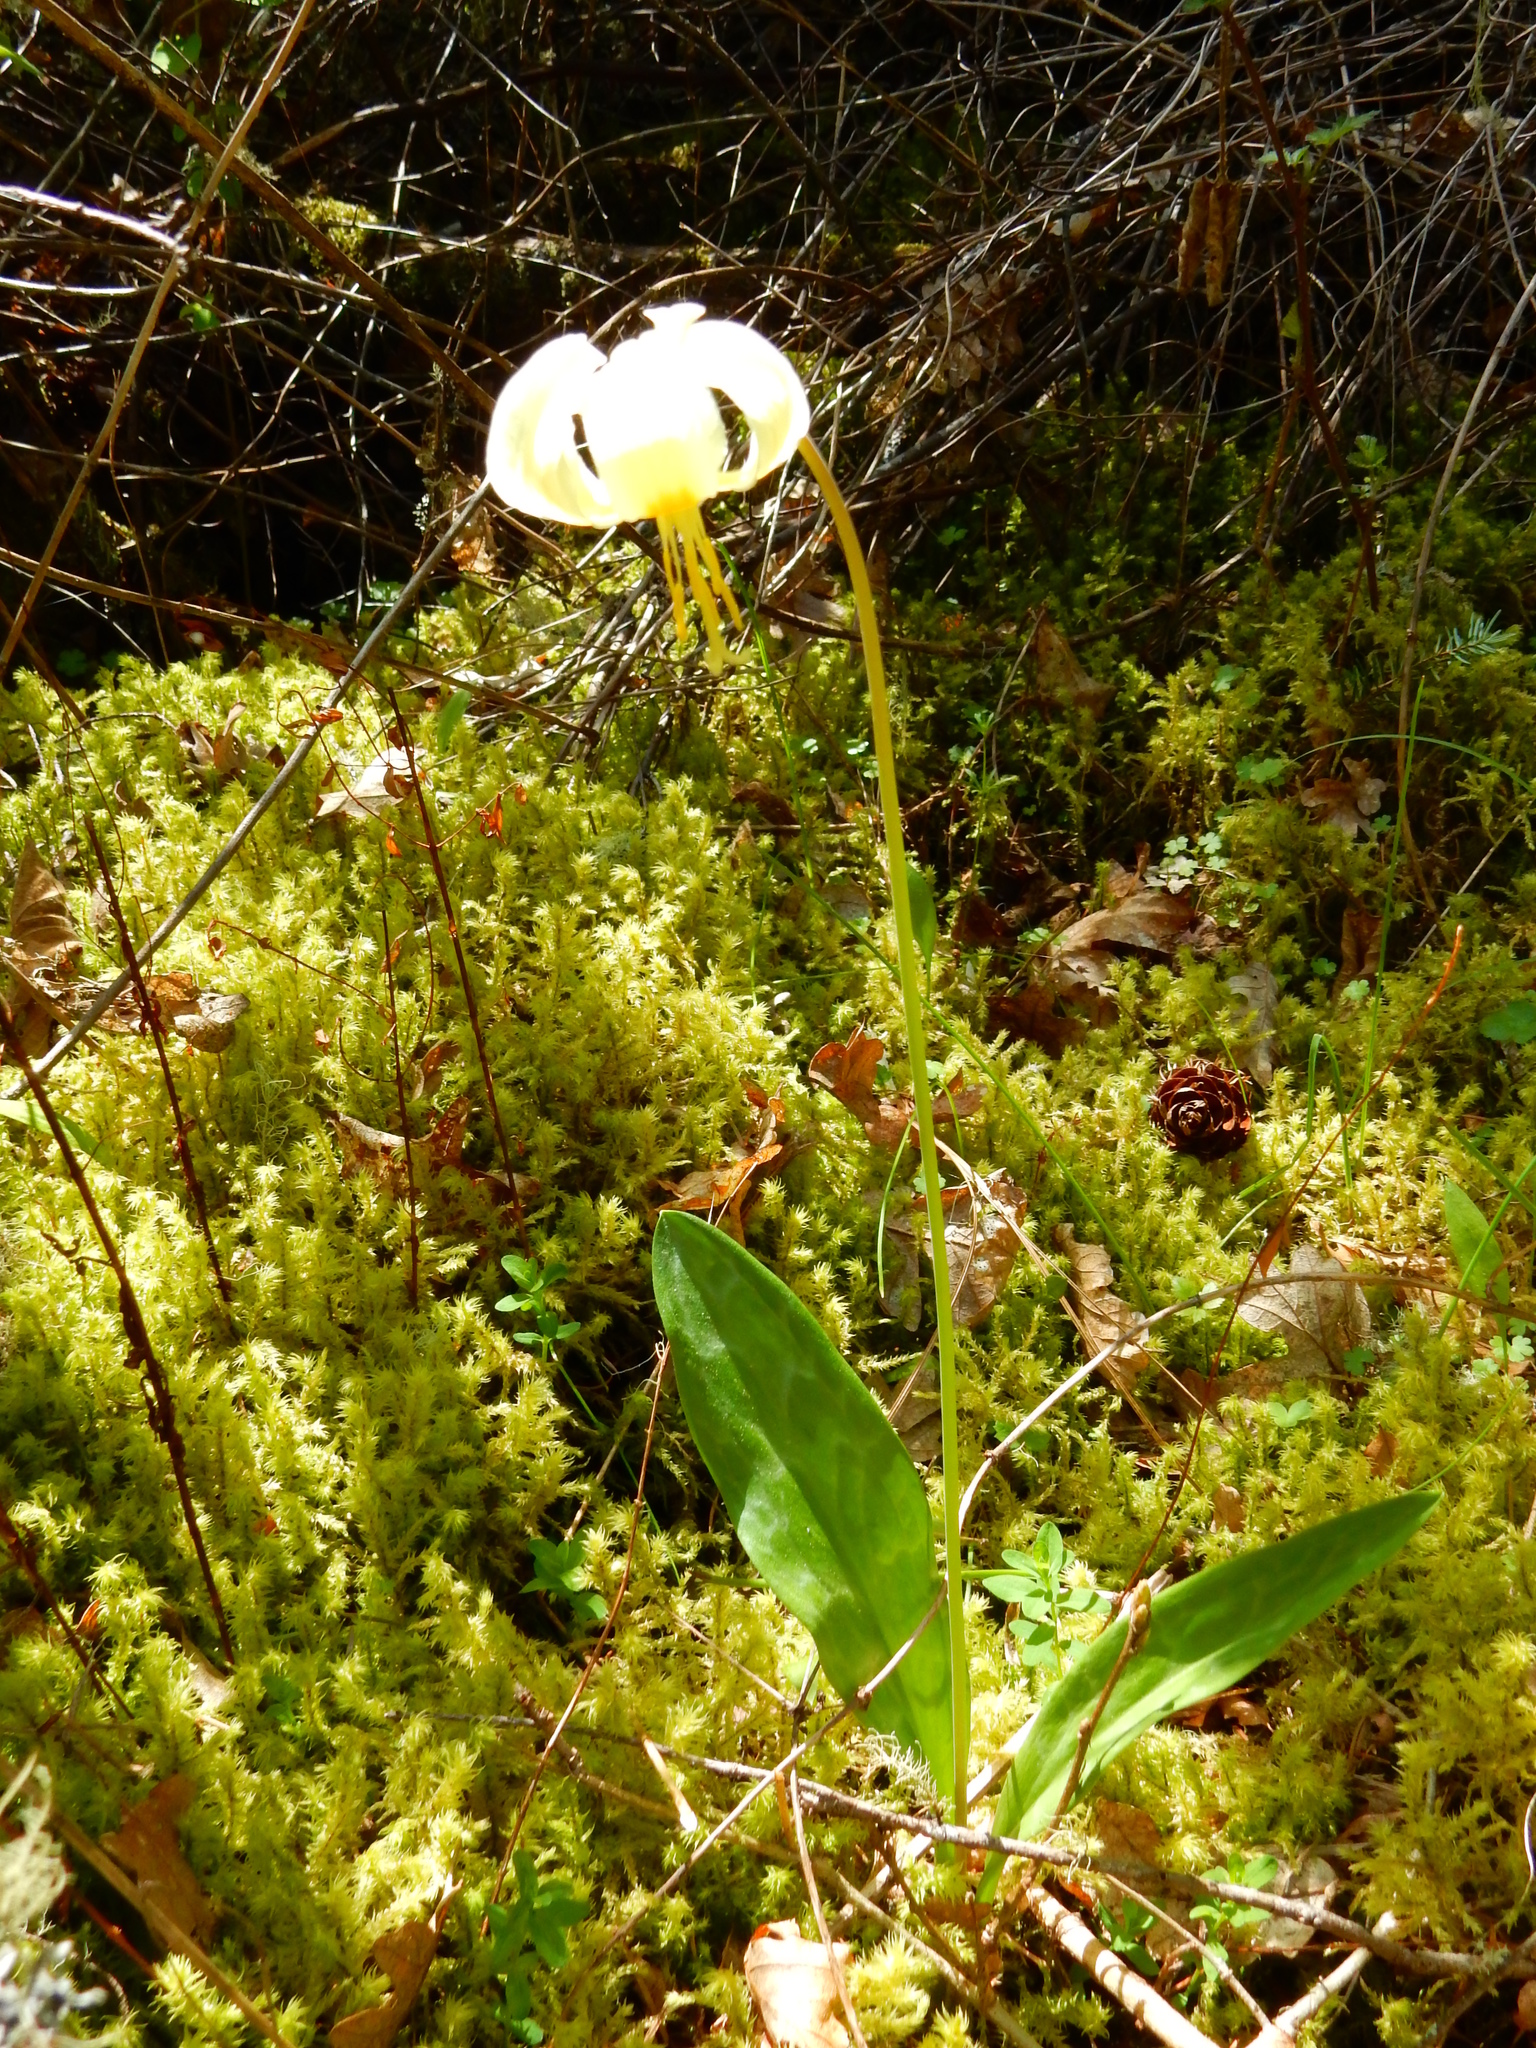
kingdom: Plantae
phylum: Tracheophyta
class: Liliopsida
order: Liliales
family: Liliaceae
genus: Erythronium
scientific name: Erythronium oregonum
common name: Giant adder's-tongue
